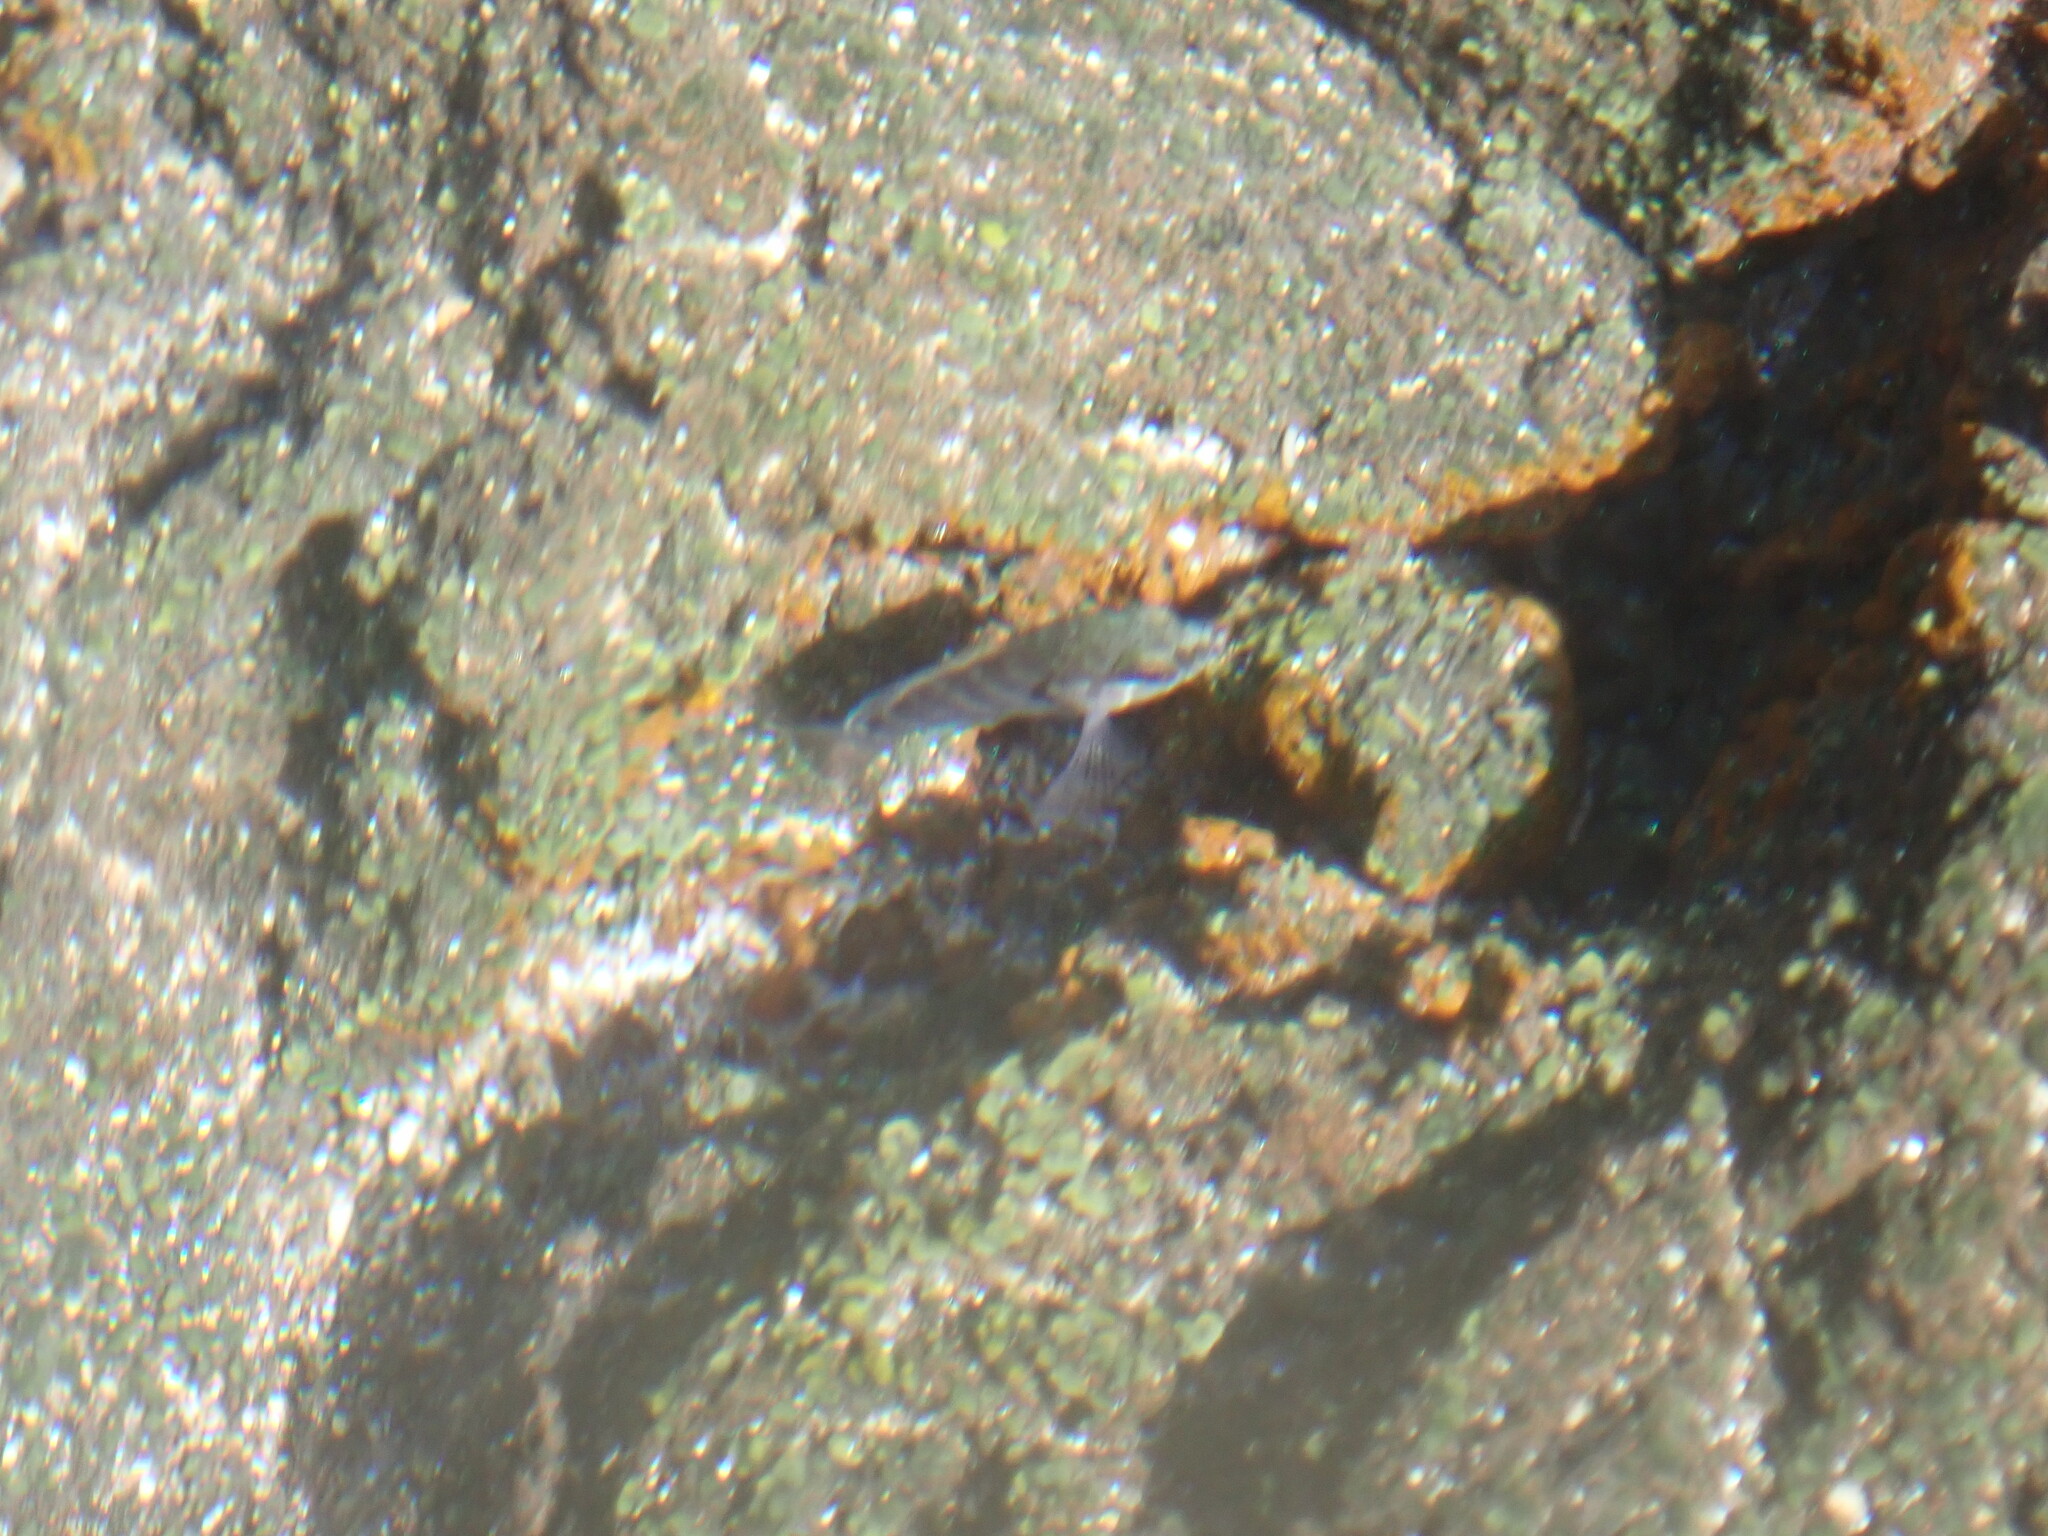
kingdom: Animalia
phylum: Chordata
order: Perciformes
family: Serranidae
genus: Epinephelus
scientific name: Epinephelus marginatus
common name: Dusky grouper
